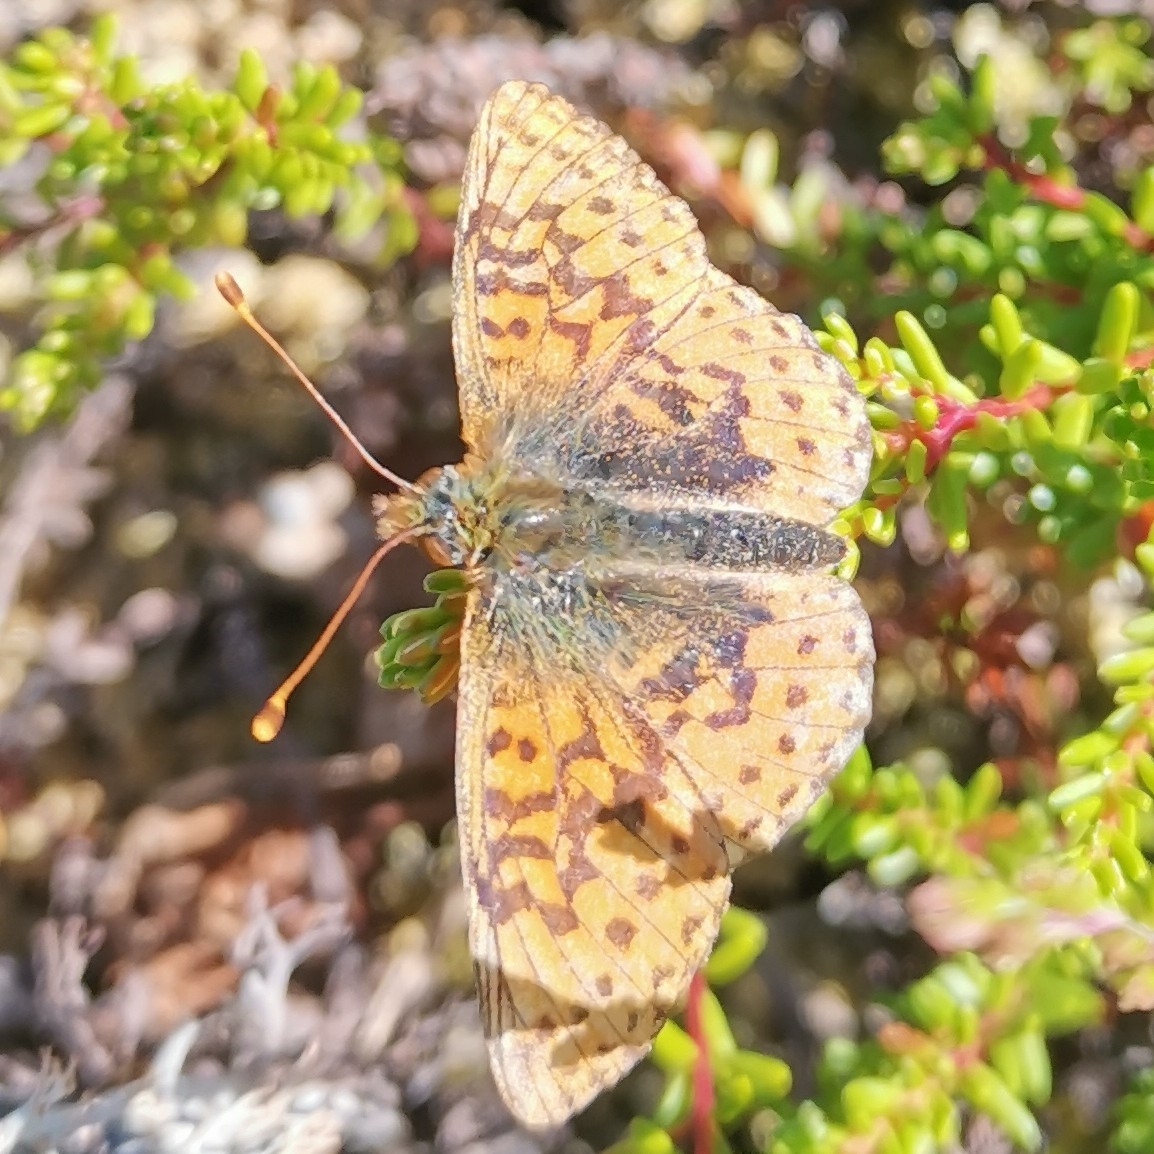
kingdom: Animalia
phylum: Arthropoda
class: Insecta
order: Lepidoptera
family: Nymphalidae
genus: Boloria
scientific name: Boloria aquilonaris
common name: Cranberry fritillary
